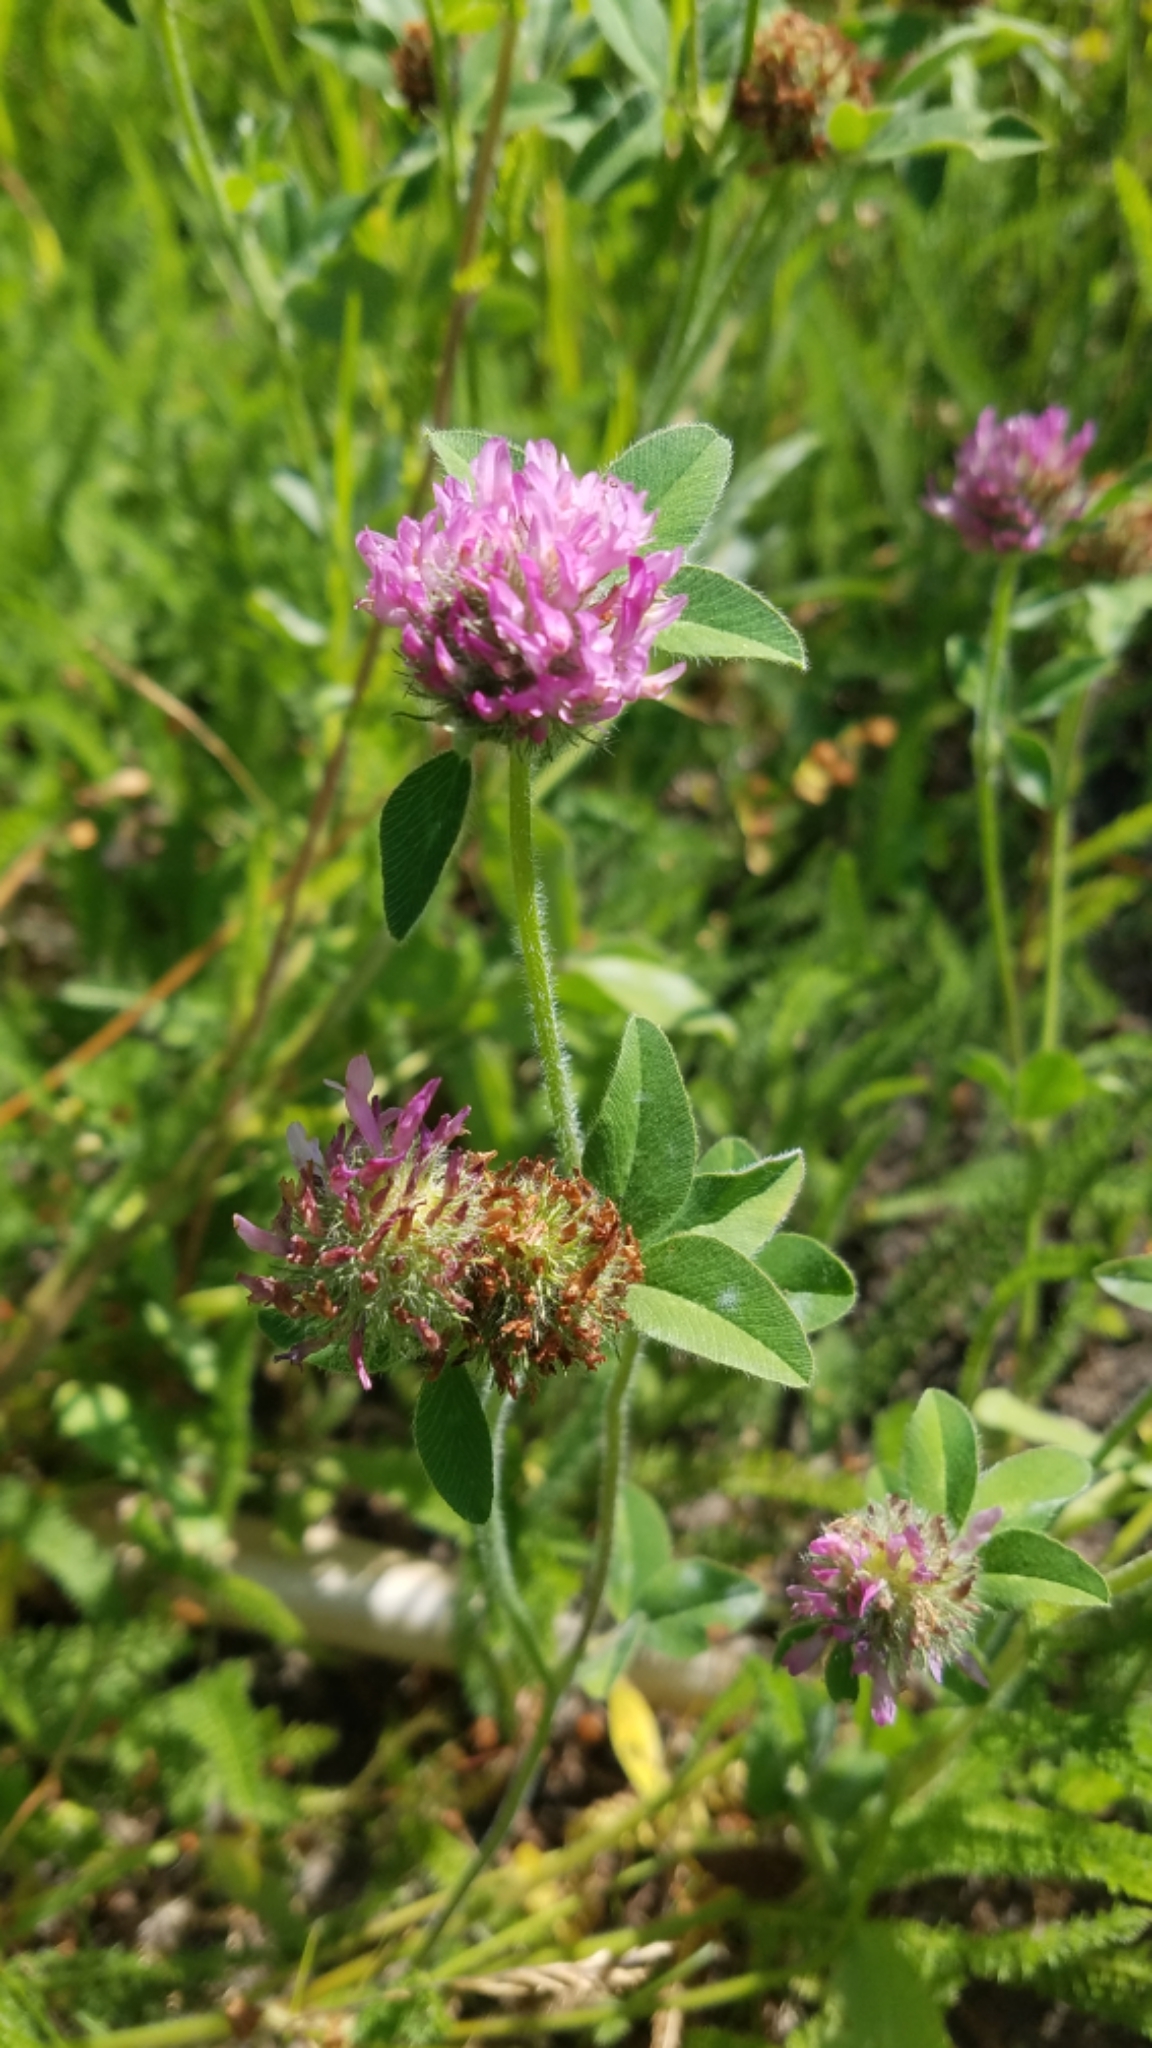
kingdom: Plantae
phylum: Tracheophyta
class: Magnoliopsida
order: Fabales
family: Fabaceae
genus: Trifolium
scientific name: Trifolium pratense
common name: Red clover
